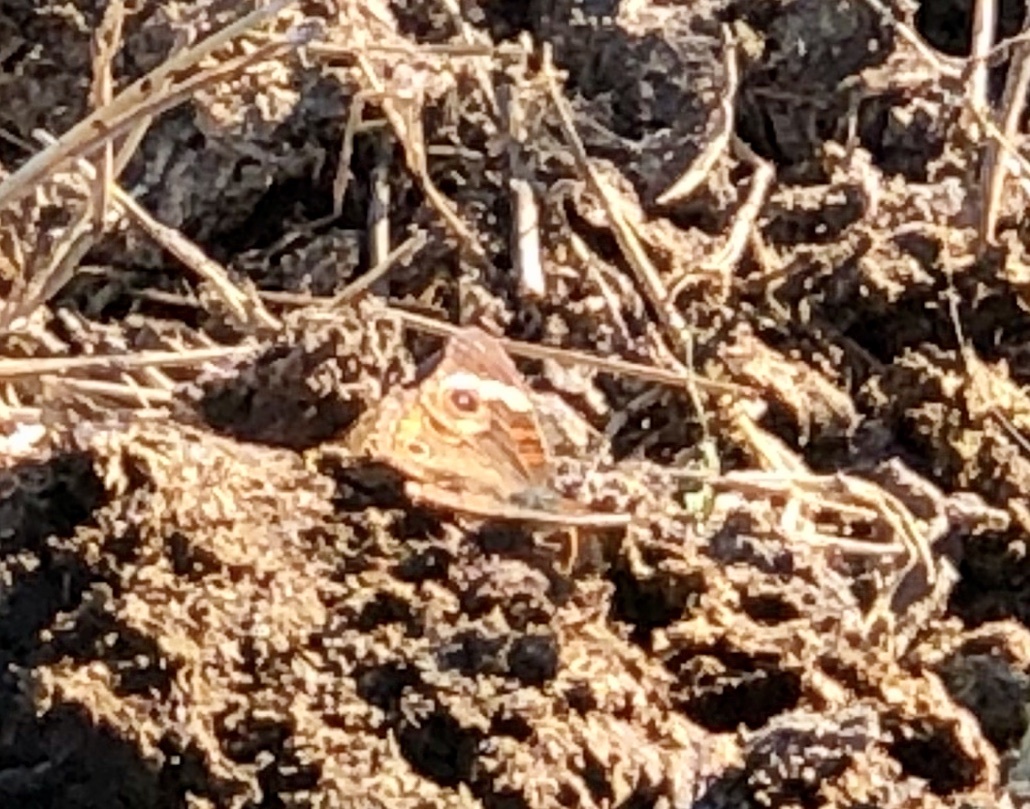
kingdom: Animalia
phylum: Arthropoda
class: Insecta
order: Lepidoptera
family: Nymphalidae
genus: Junonia
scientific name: Junonia coenia
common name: Common buckeye
